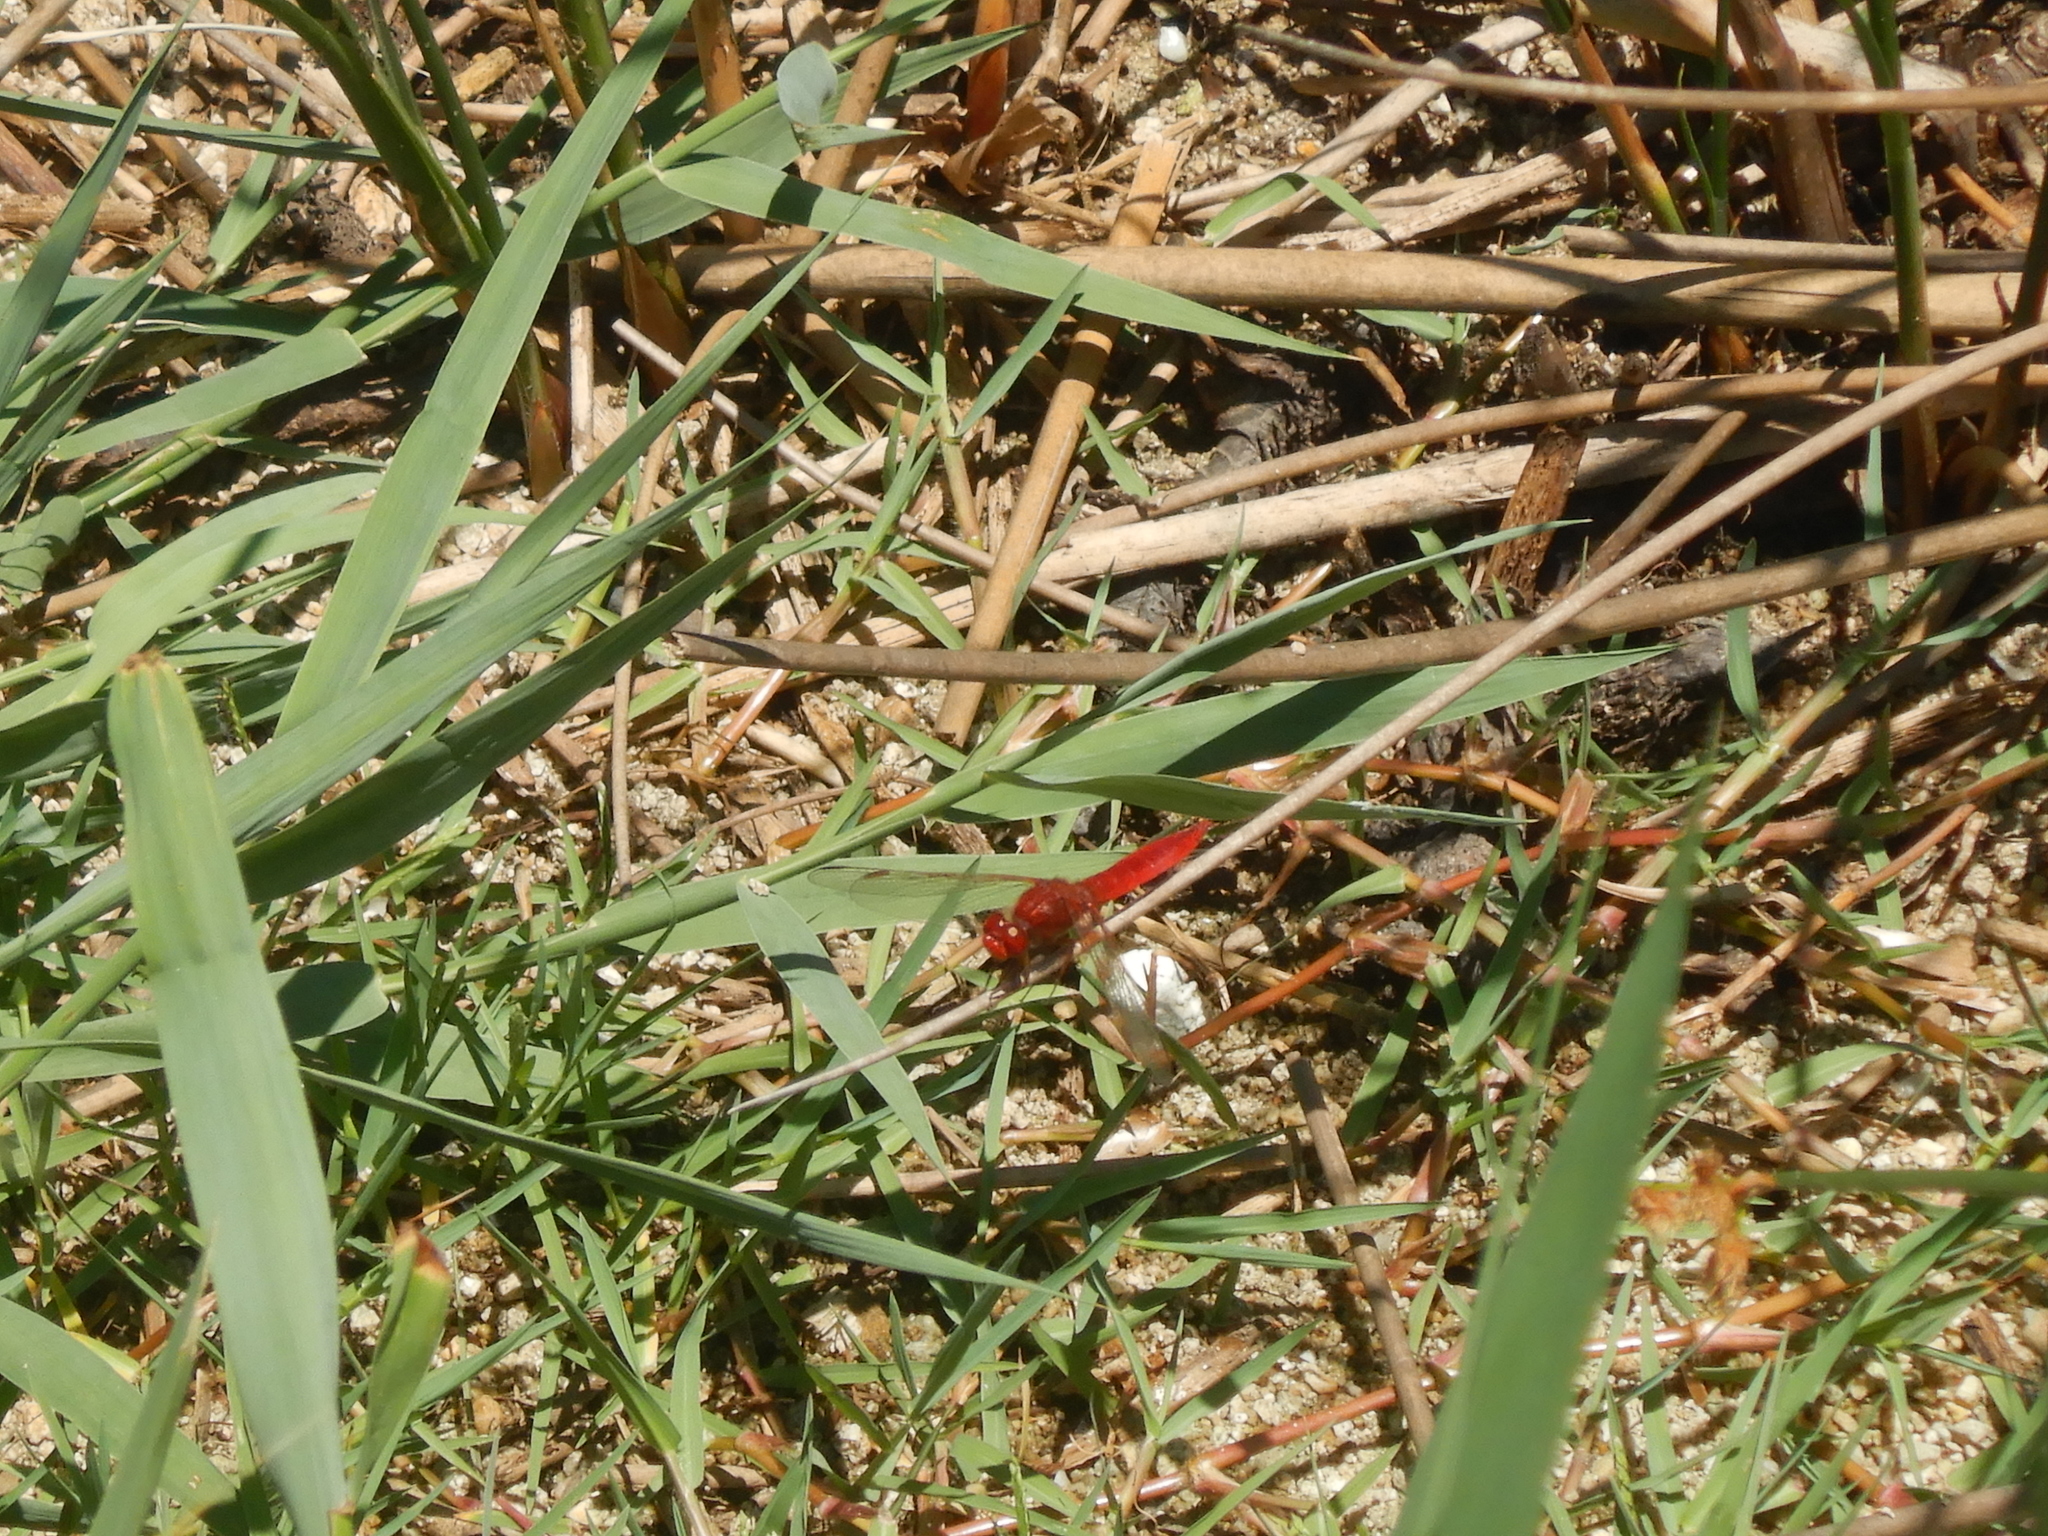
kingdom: Animalia
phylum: Arthropoda
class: Insecta
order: Odonata
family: Libellulidae
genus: Crocothemis
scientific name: Crocothemis erythraea
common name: Scarlet dragonfly
